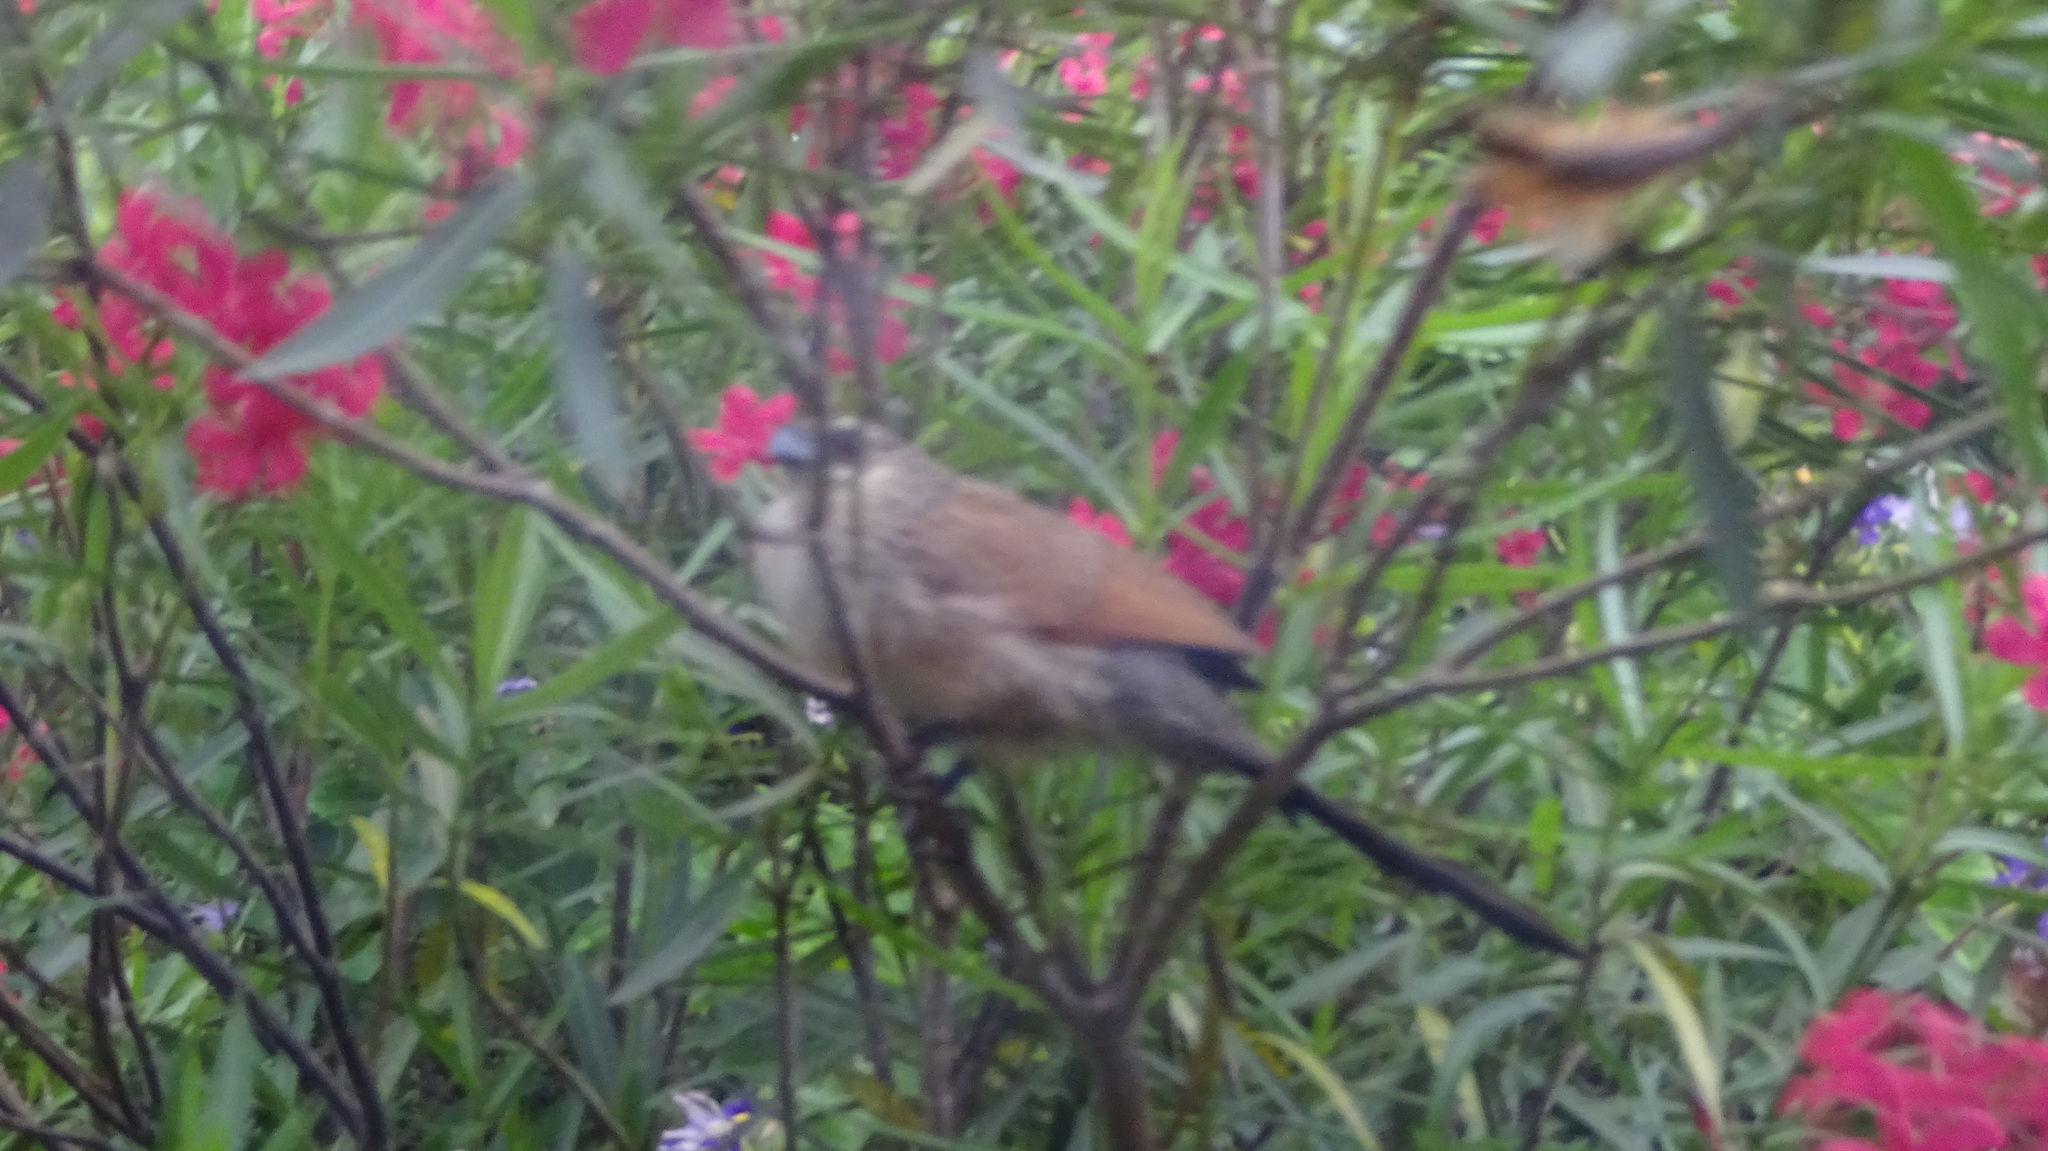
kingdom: Animalia
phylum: Chordata
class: Aves
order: Cuculiformes
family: Cuculidae
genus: Centropus
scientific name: Centropus superciliosus
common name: White-browed coucal
